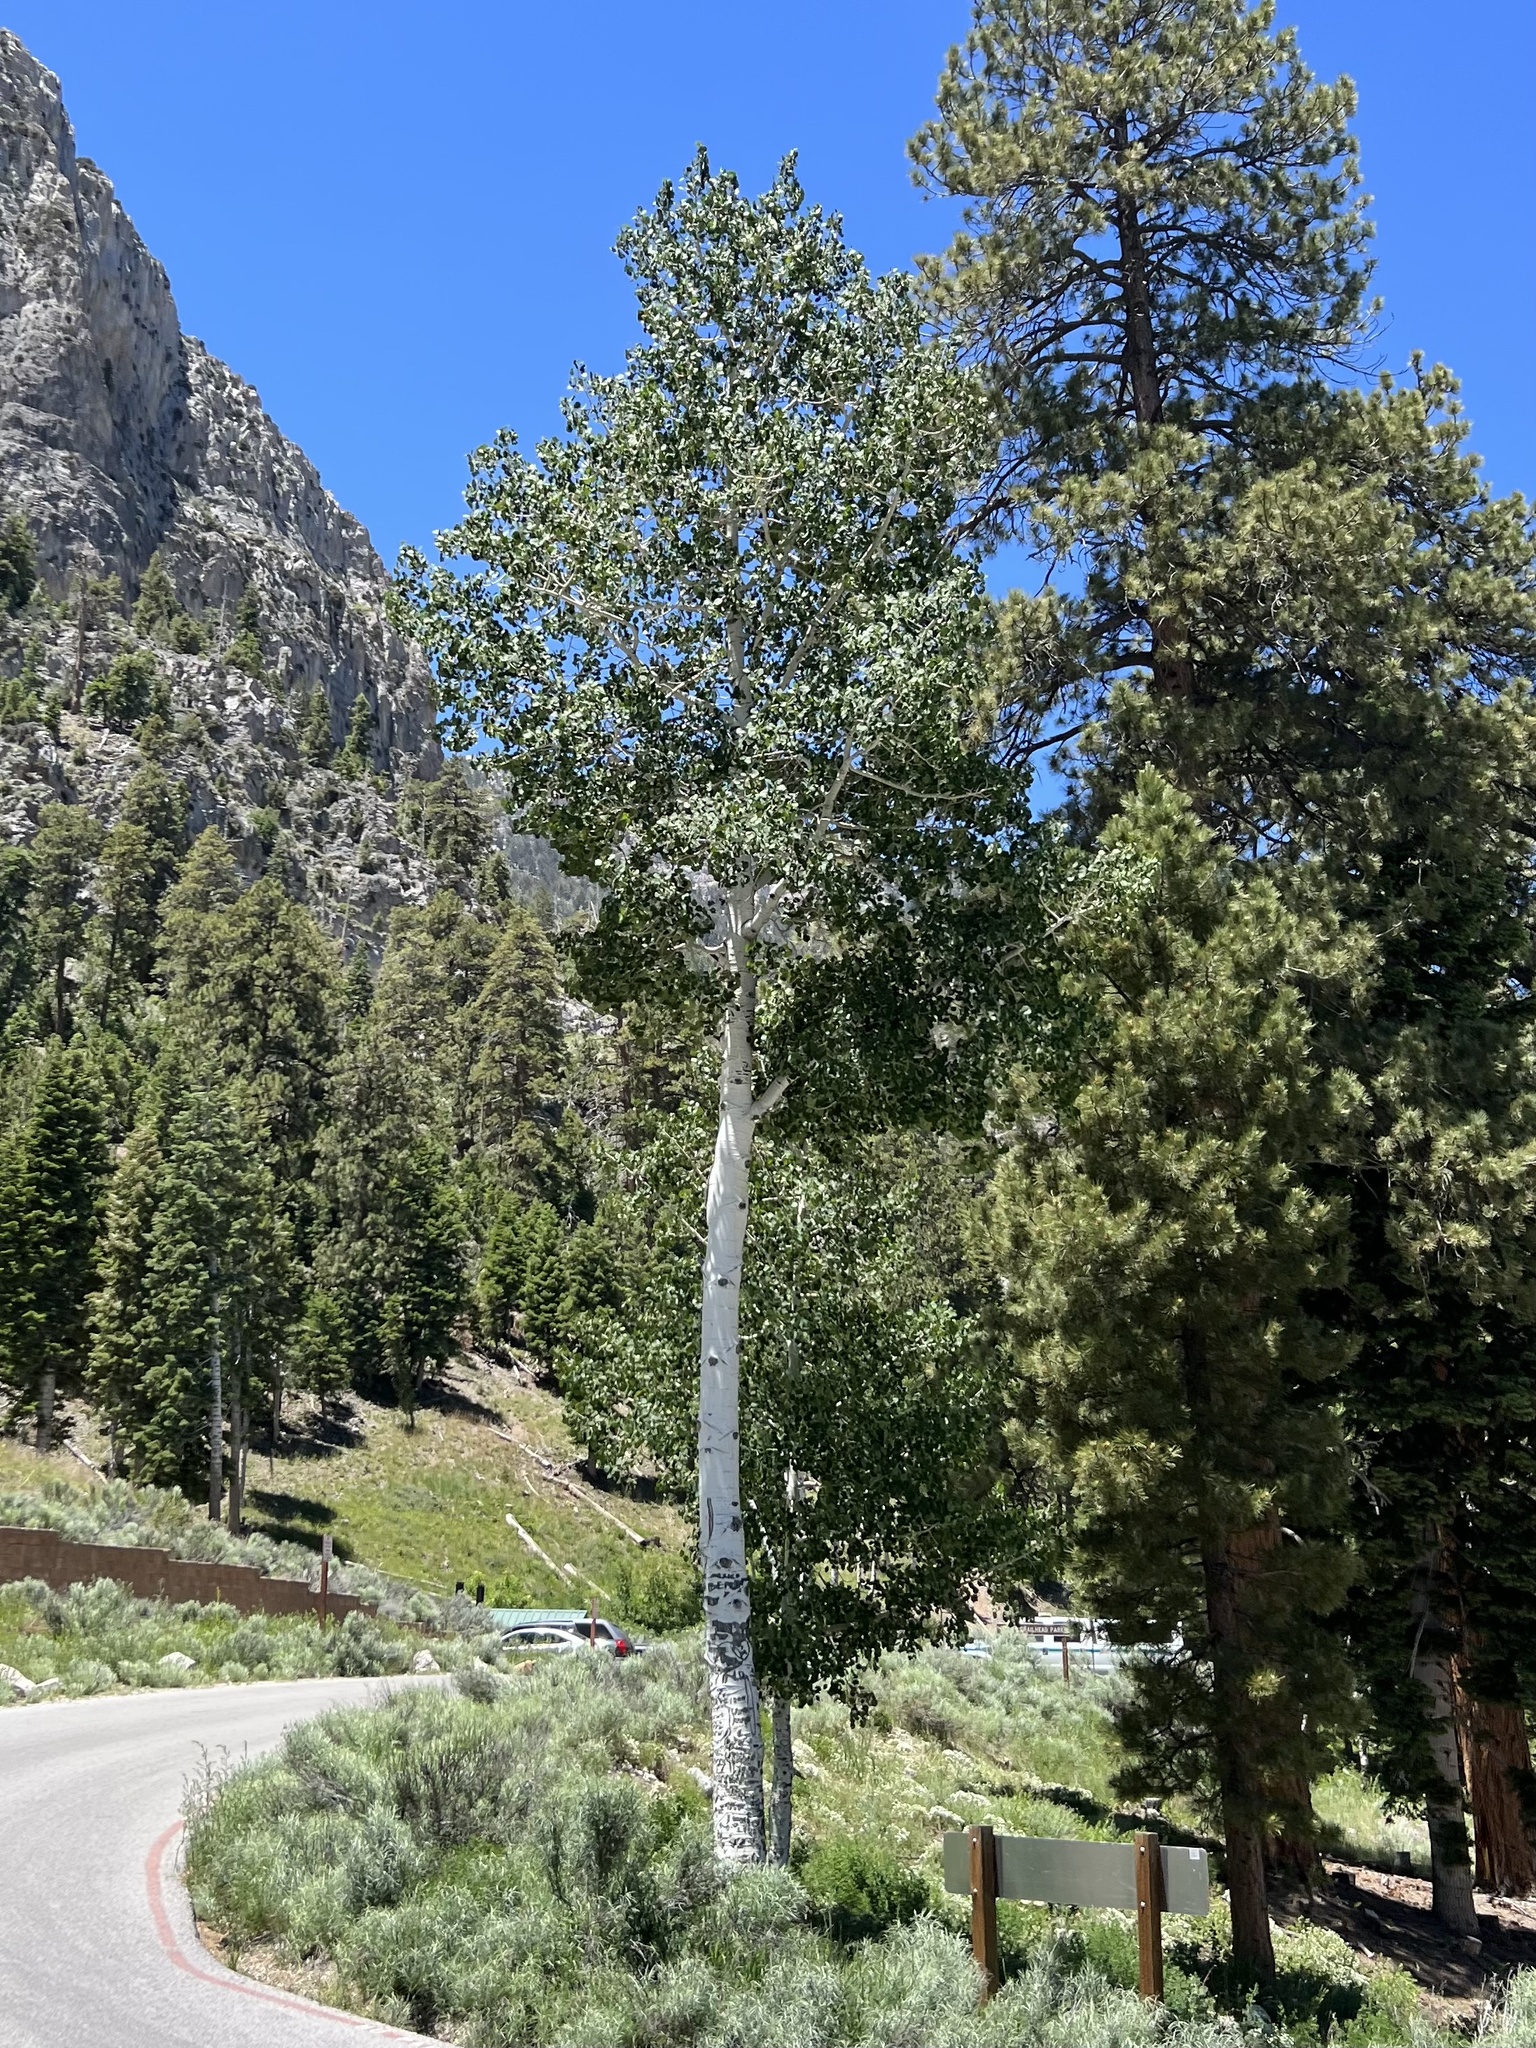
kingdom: Plantae
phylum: Tracheophyta
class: Magnoliopsida
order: Malpighiales
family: Salicaceae
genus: Populus
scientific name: Populus tremuloides
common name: Quaking aspen
